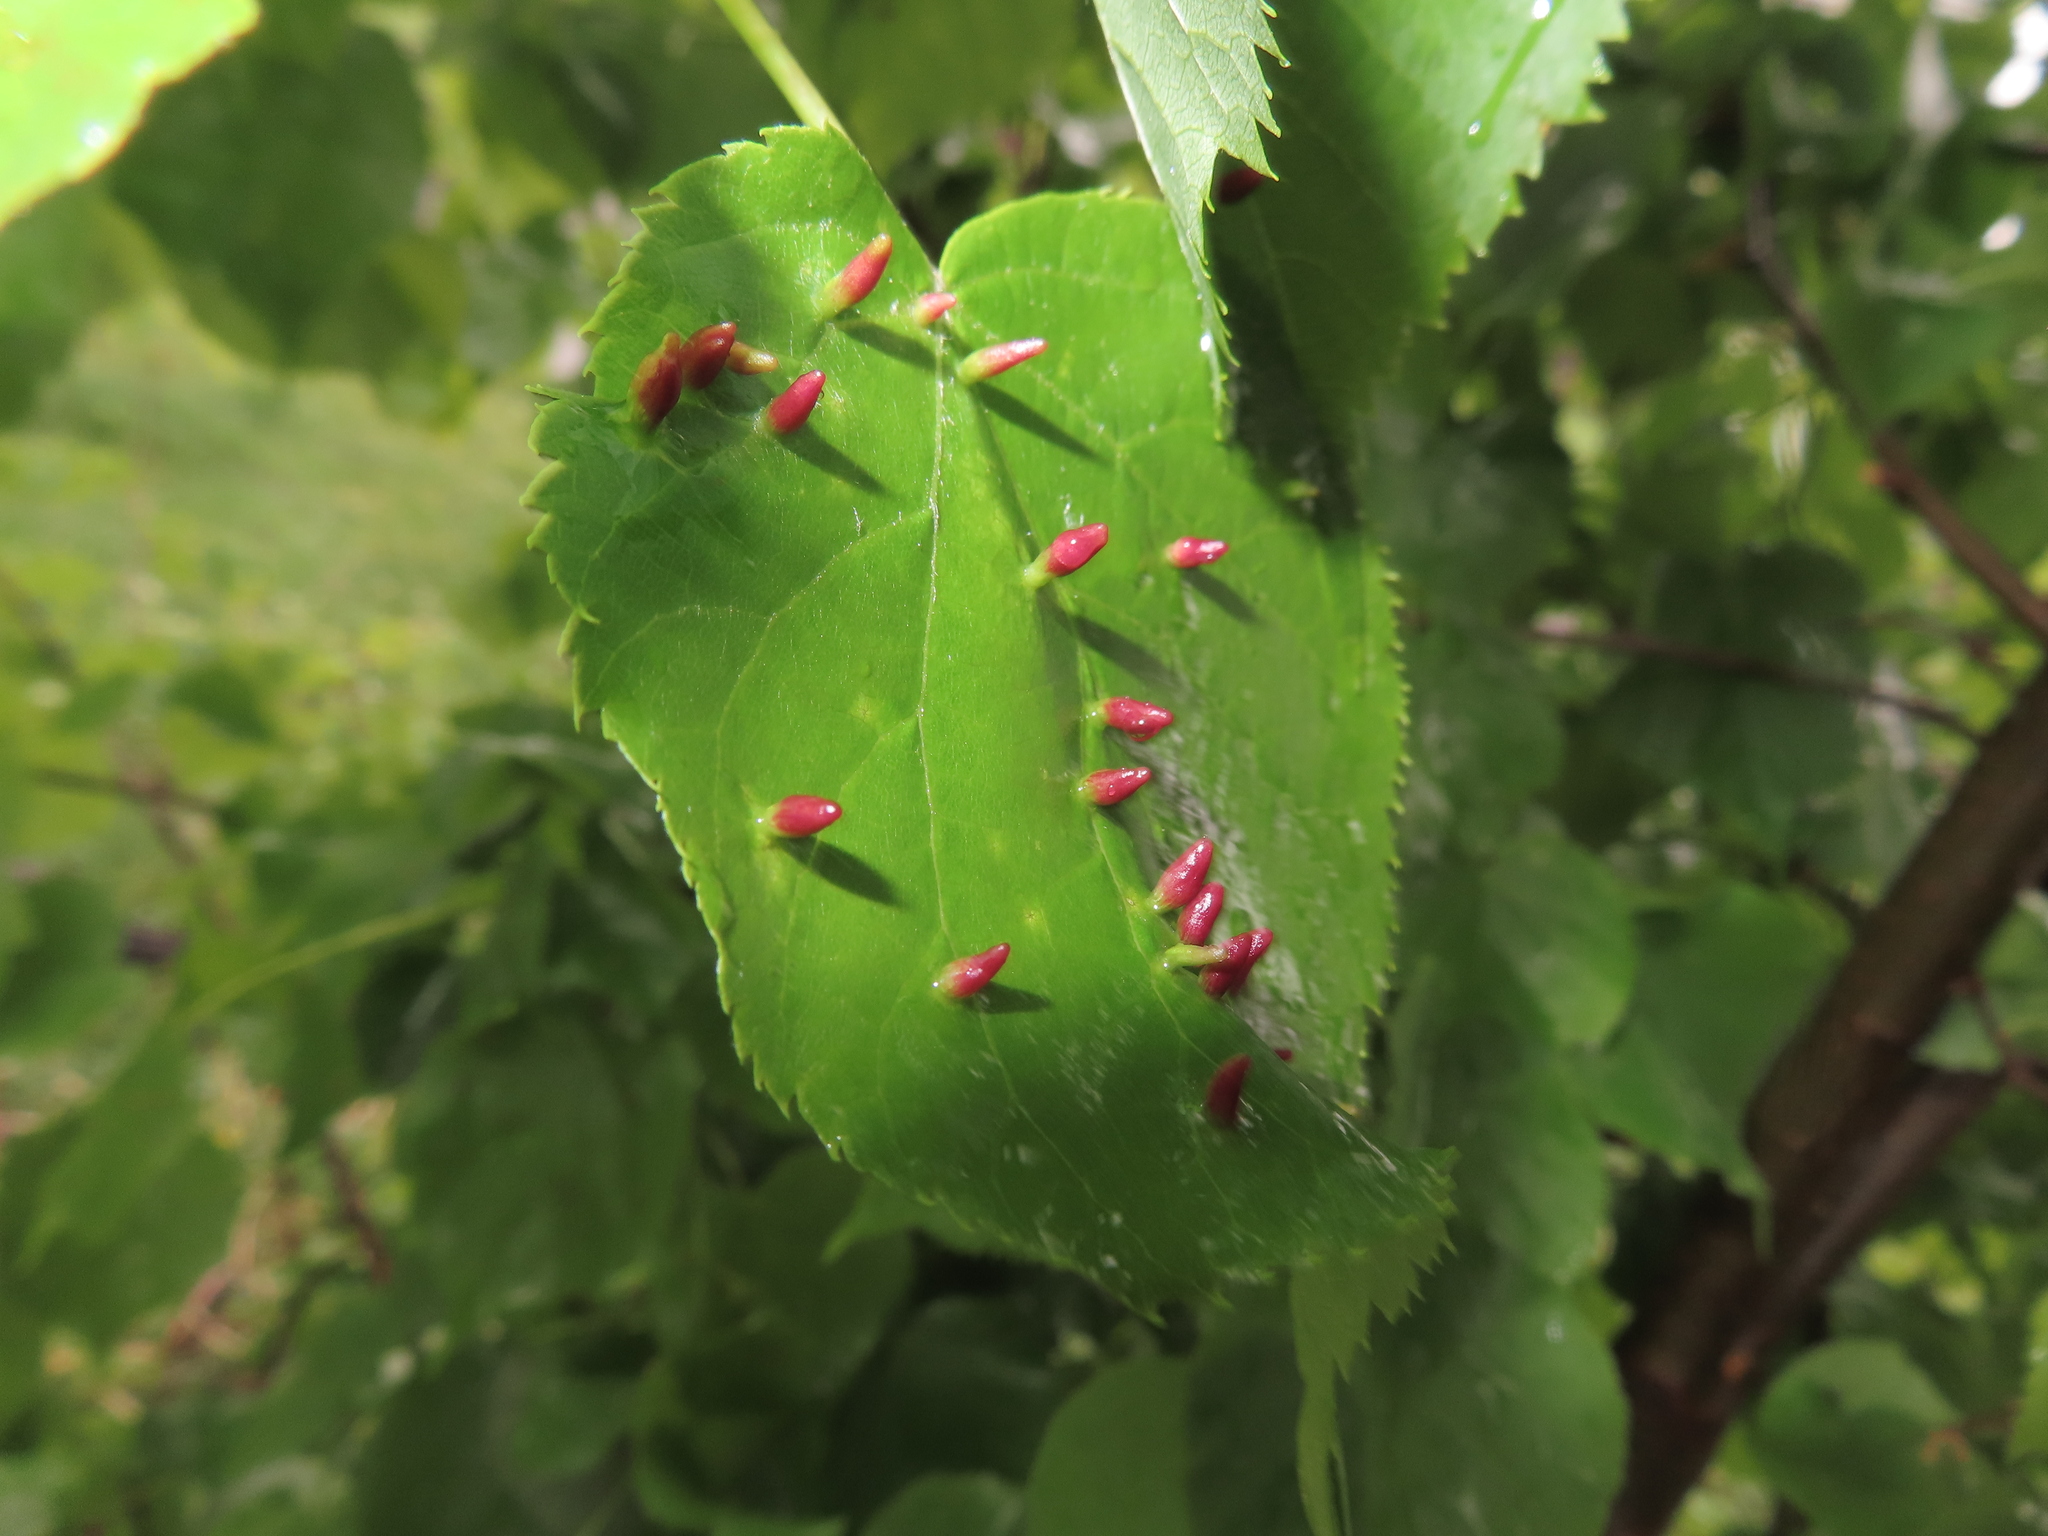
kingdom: Animalia
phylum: Arthropoda
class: Arachnida
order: Trombidiformes
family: Eriophyidae
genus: Eriophyes
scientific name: Eriophyes tiliae
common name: Red nail gall mite
